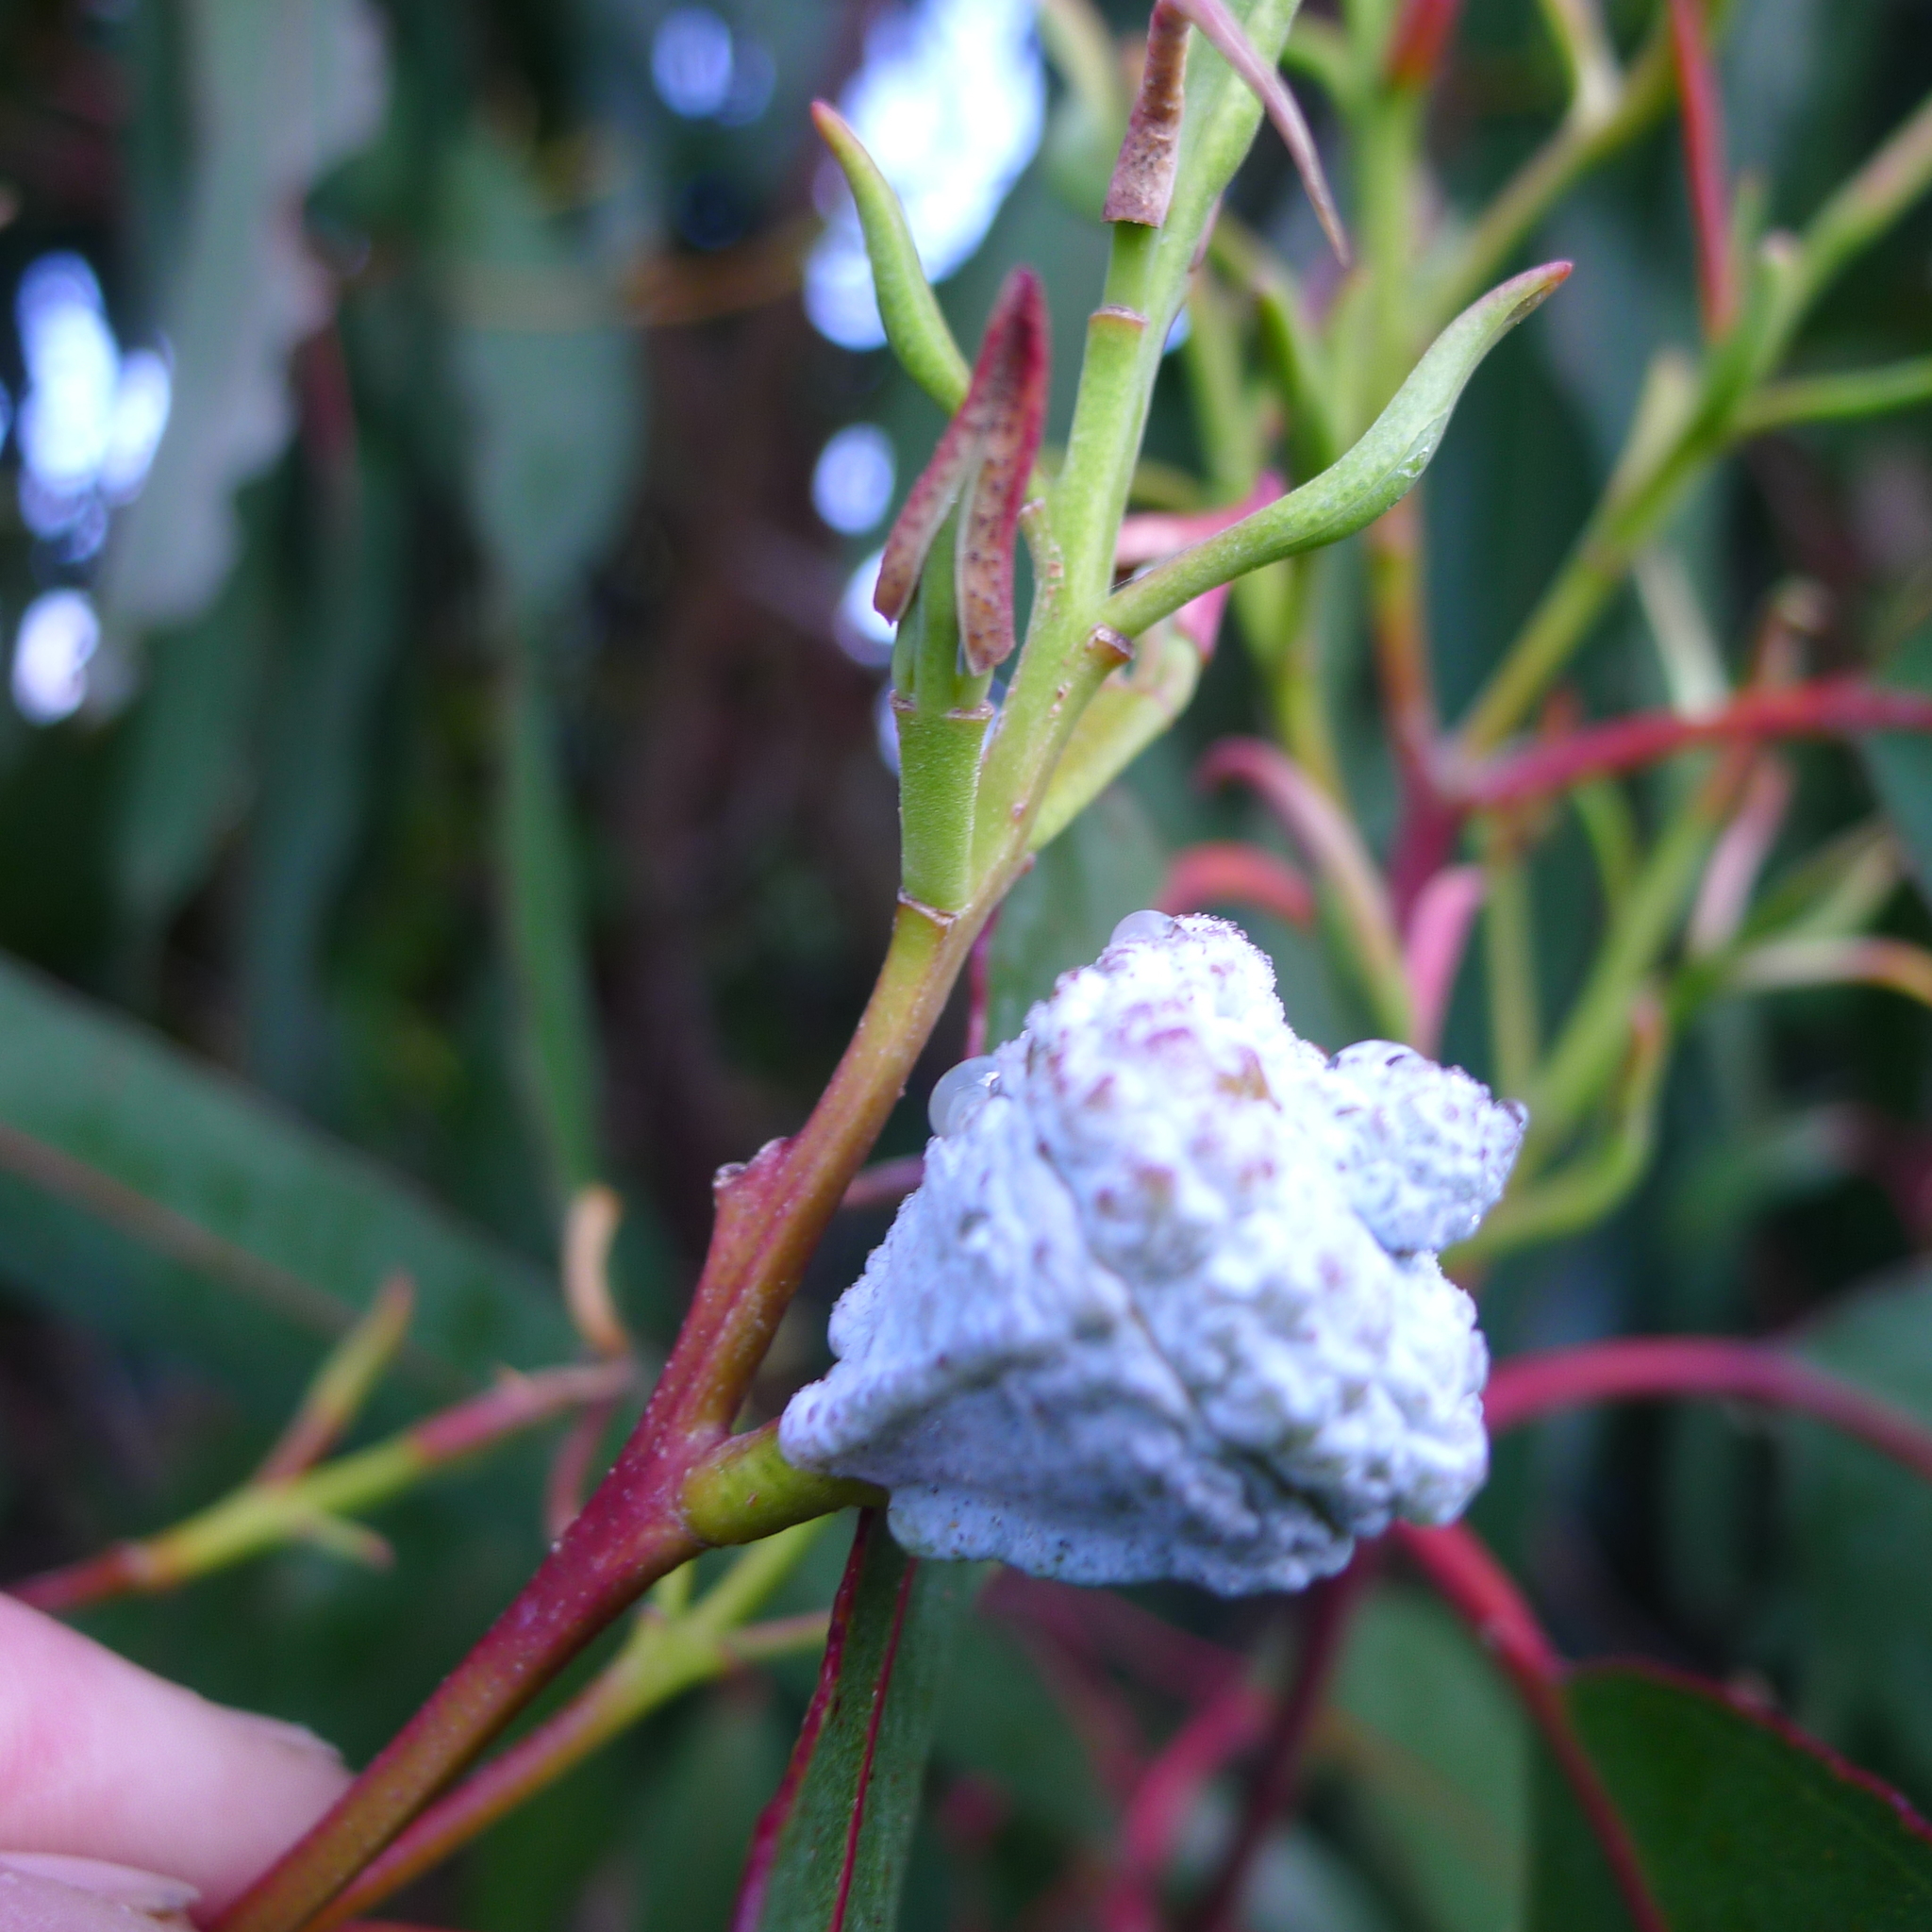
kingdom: Plantae
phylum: Tracheophyta
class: Magnoliopsida
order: Myrtales
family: Myrtaceae
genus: Eucalyptus
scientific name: Eucalyptus globulus
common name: Southern blue-gum
